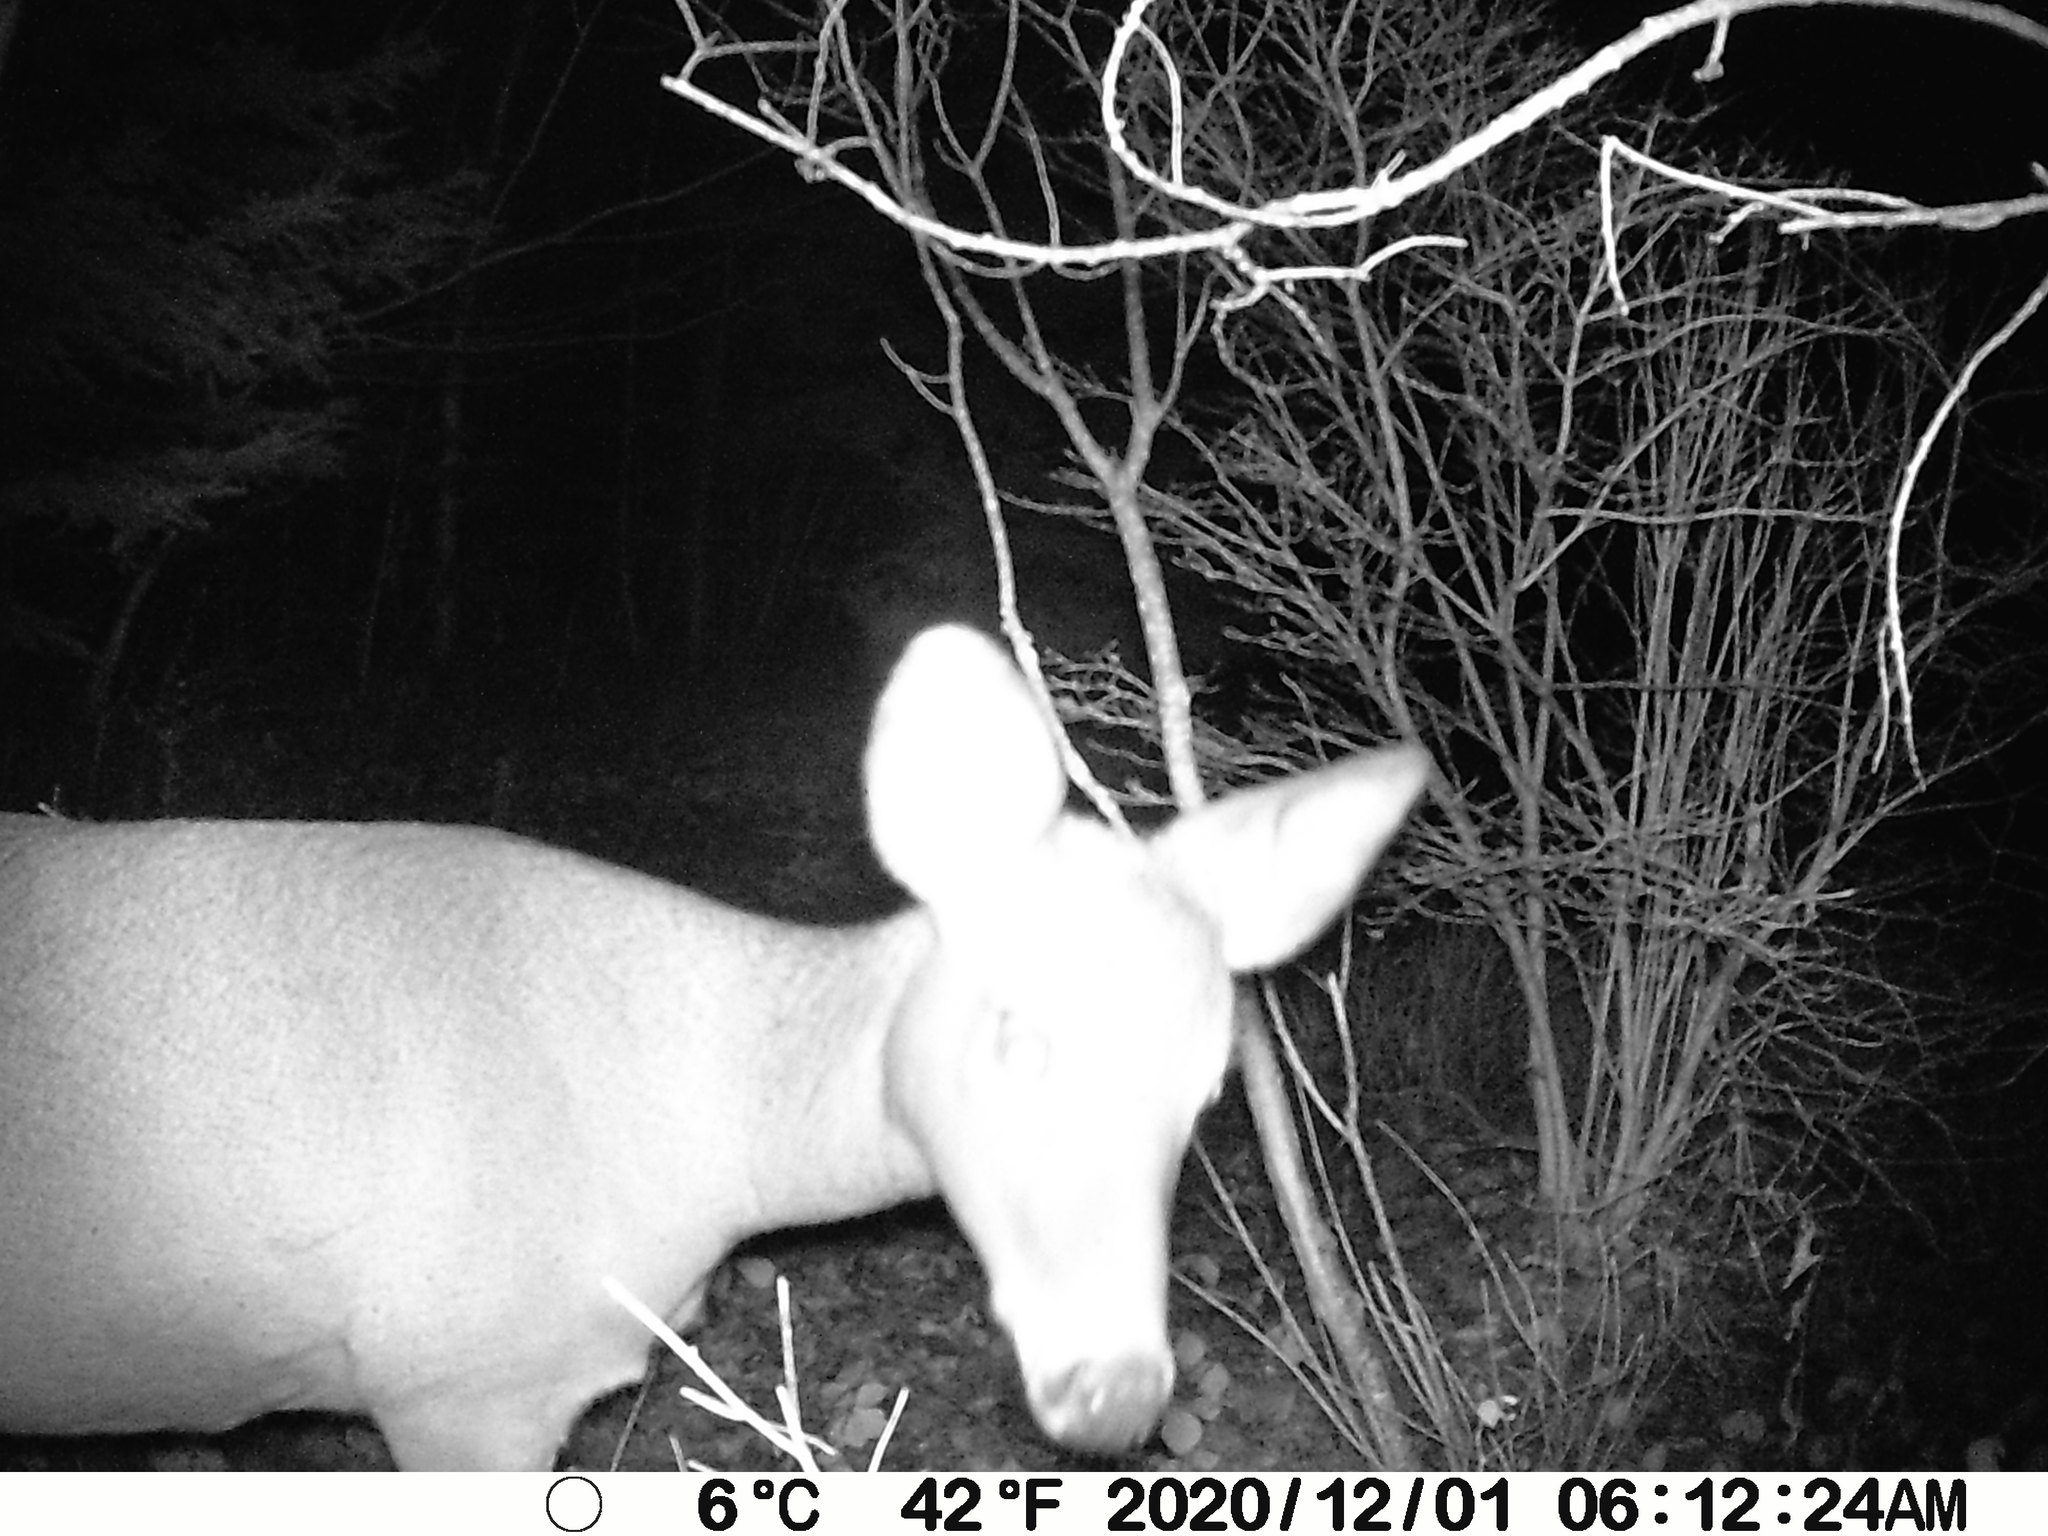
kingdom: Animalia
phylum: Chordata
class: Mammalia
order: Artiodactyla
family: Cervidae
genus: Odocoileus
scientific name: Odocoileus virginianus
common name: White-tailed deer
